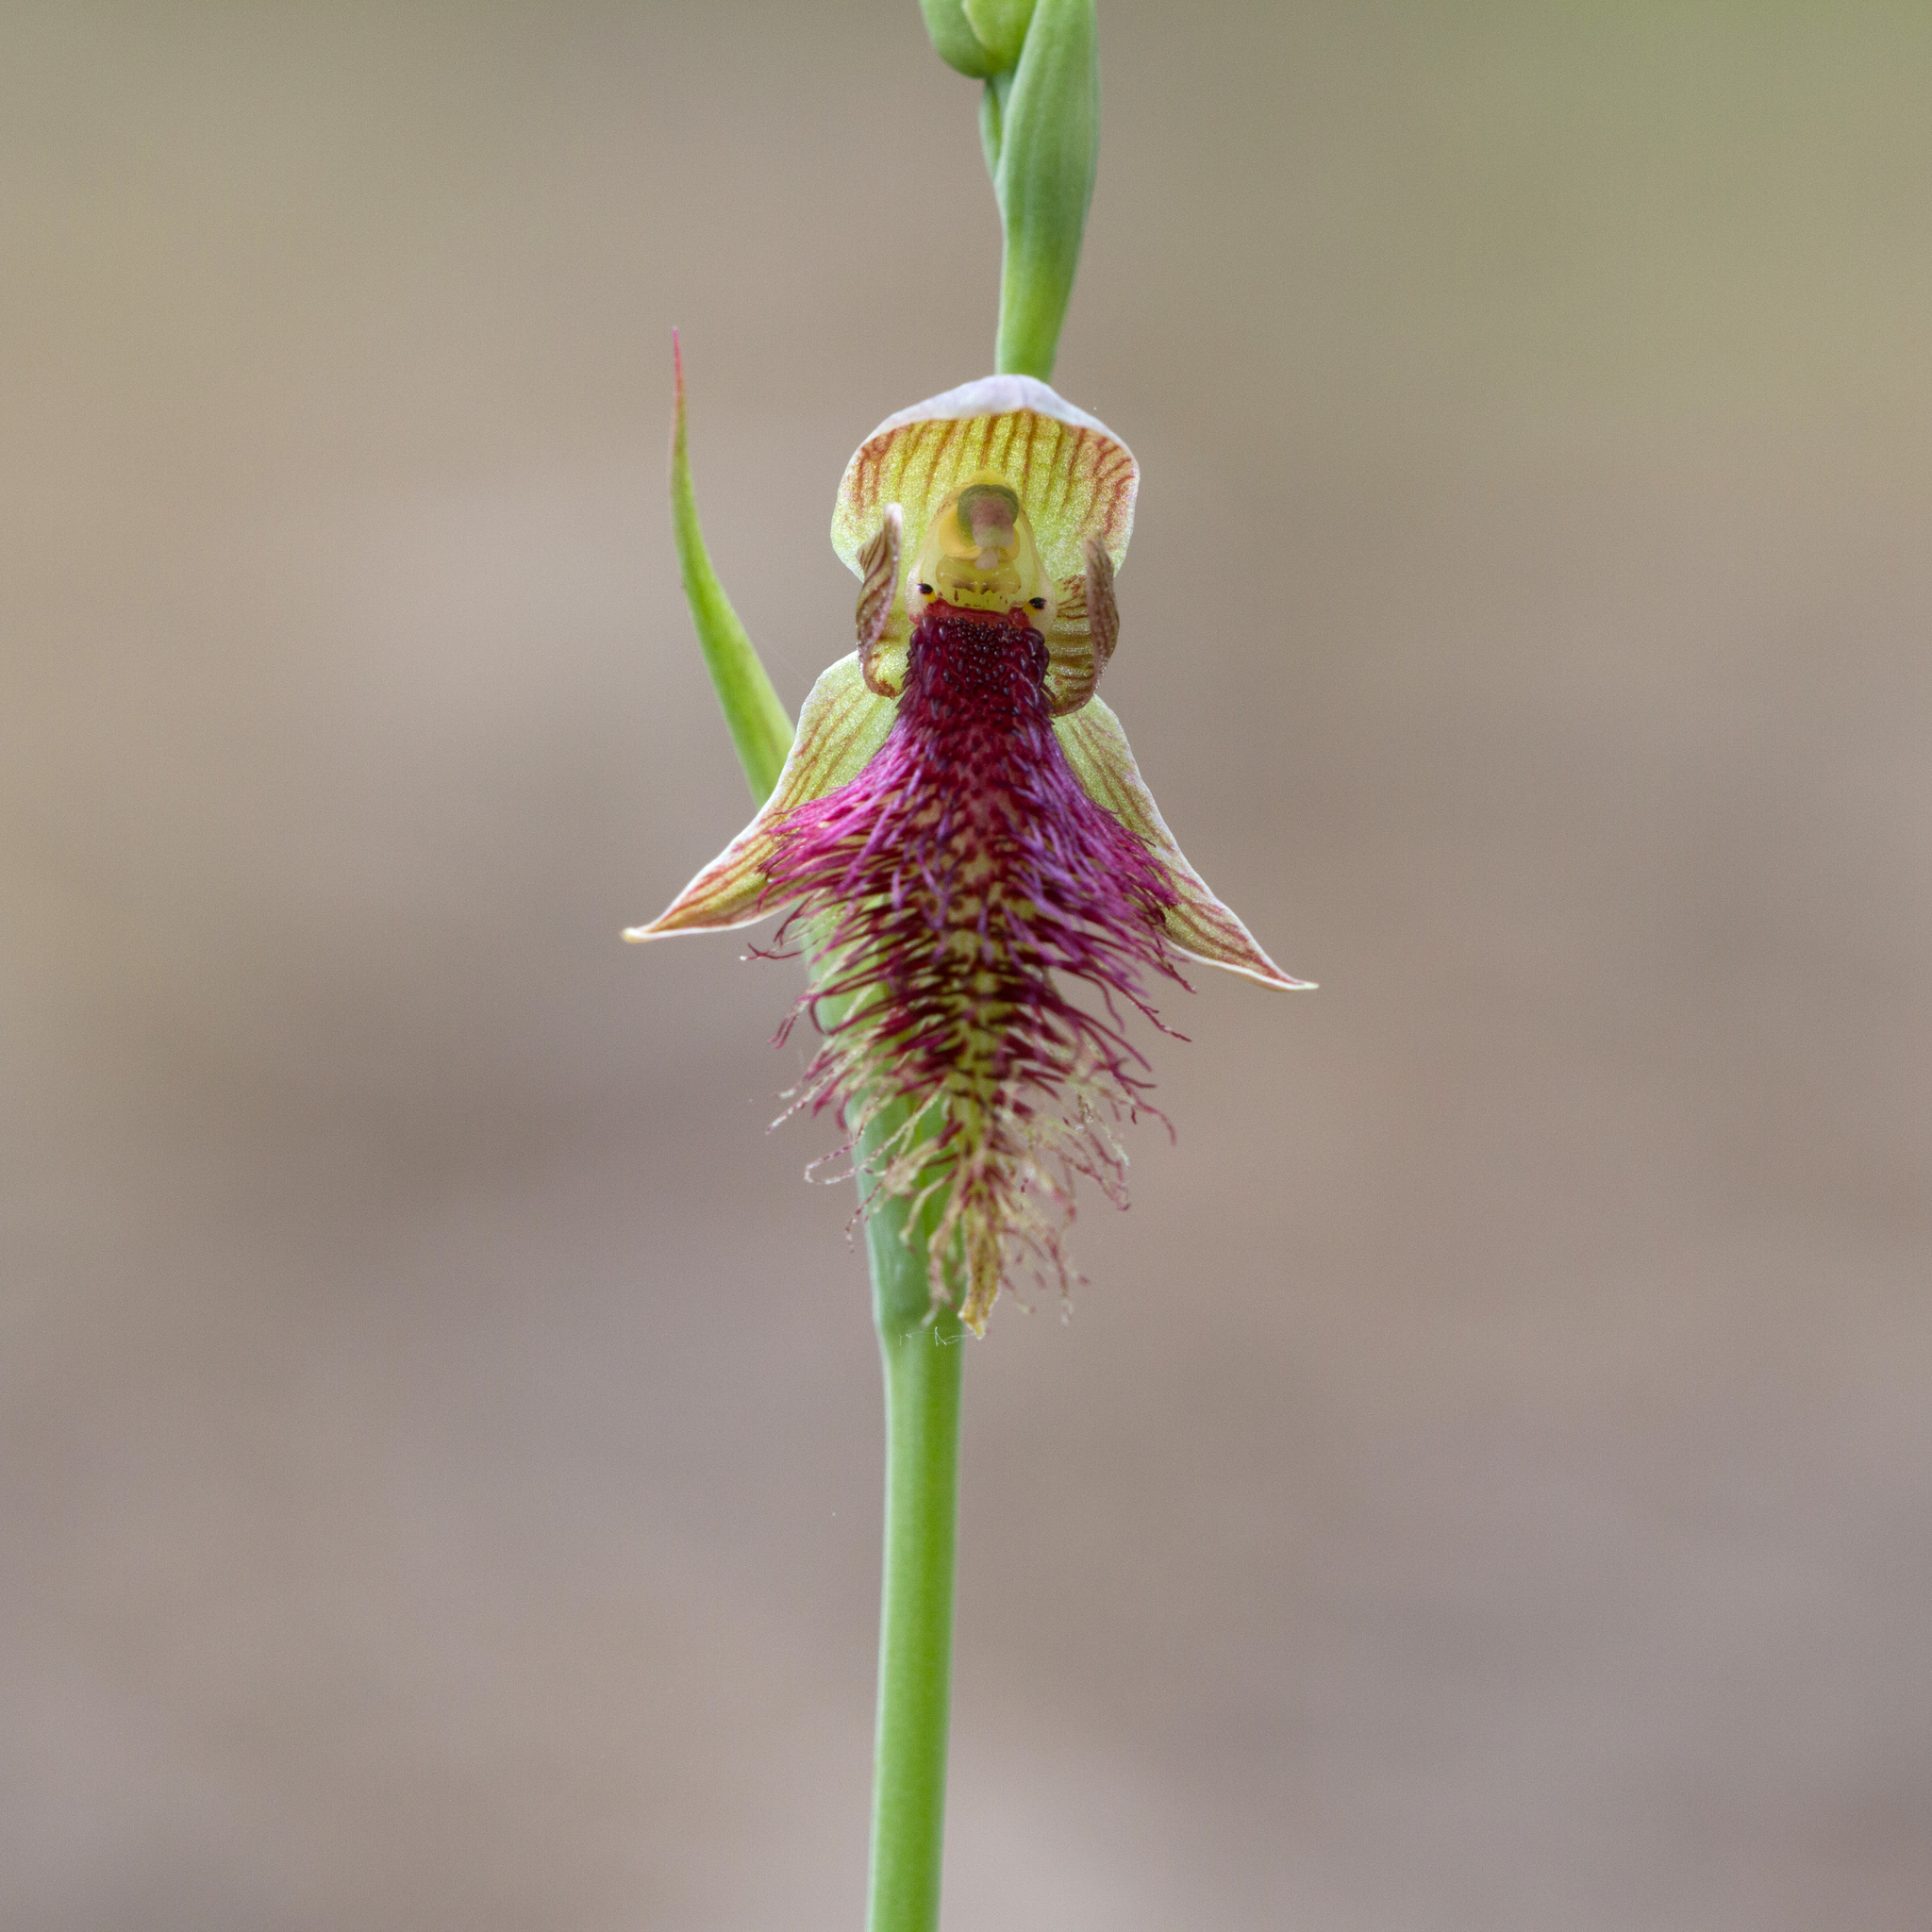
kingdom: Plantae
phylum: Tracheophyta
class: Liliopsida
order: Asparagales
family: Orchidaceae
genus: Calochilus
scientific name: Calochilus robertsonii
